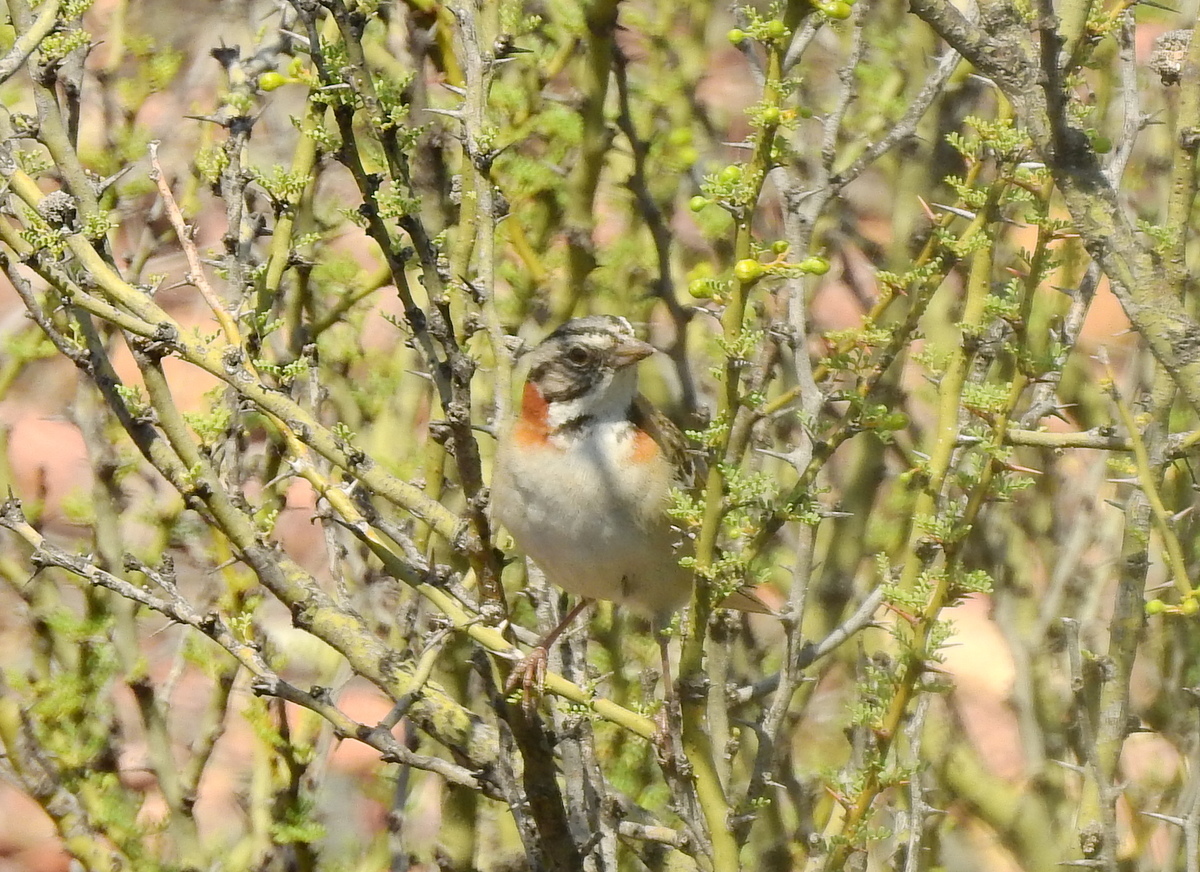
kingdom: Animalia
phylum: Chordata
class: Aves
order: Passeriformes
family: Passerellidae
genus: Zonotrichia
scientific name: Zonotrichia capensis
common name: Rufous-collared sparrow
